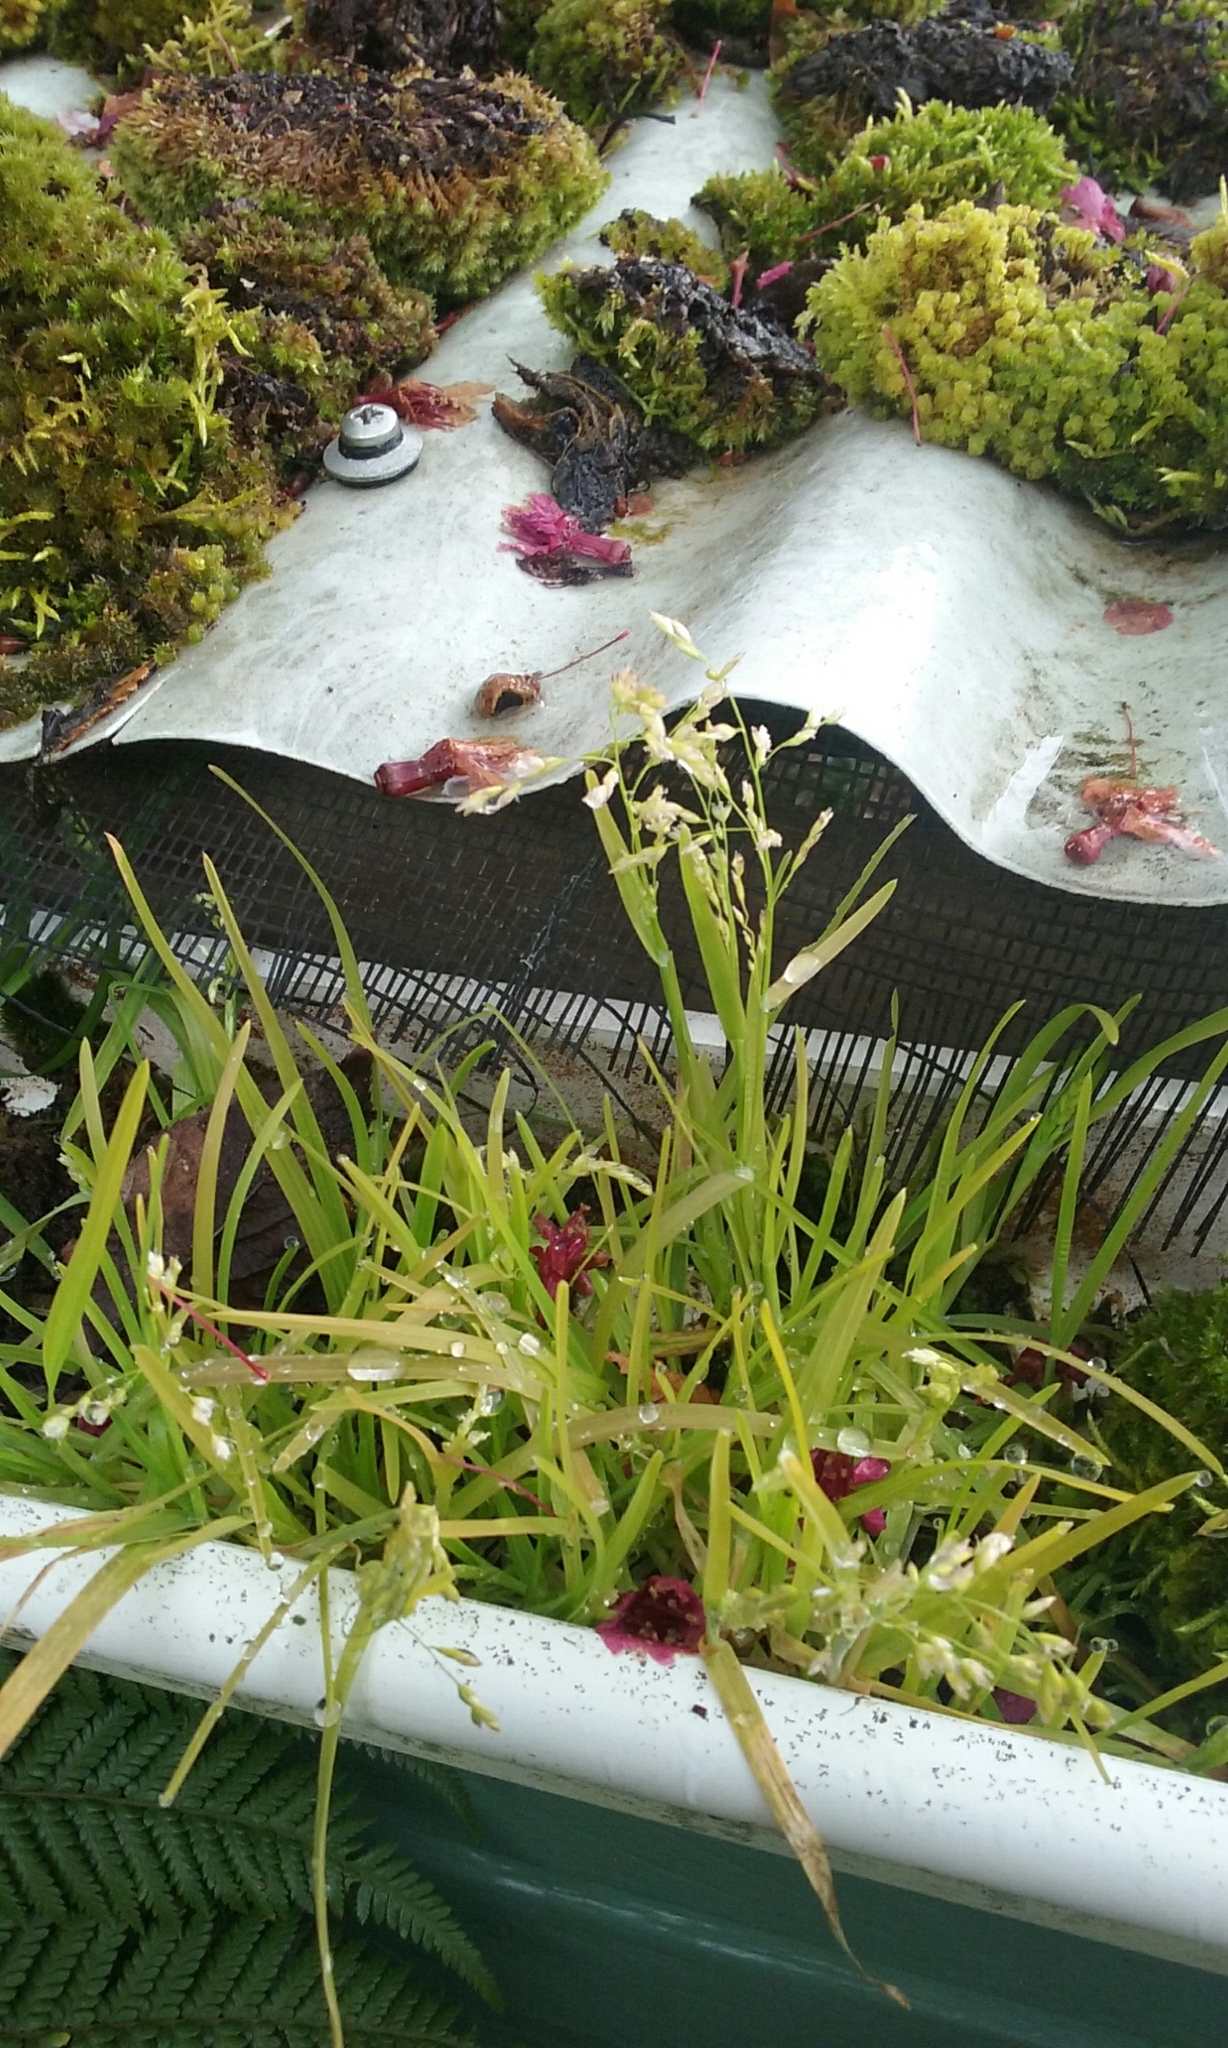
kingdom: Plantae
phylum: Tracheophyta
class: Liliopsida
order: Poales
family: Poaceae
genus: Poa
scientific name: Poa annua
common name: Annual bluegrass
